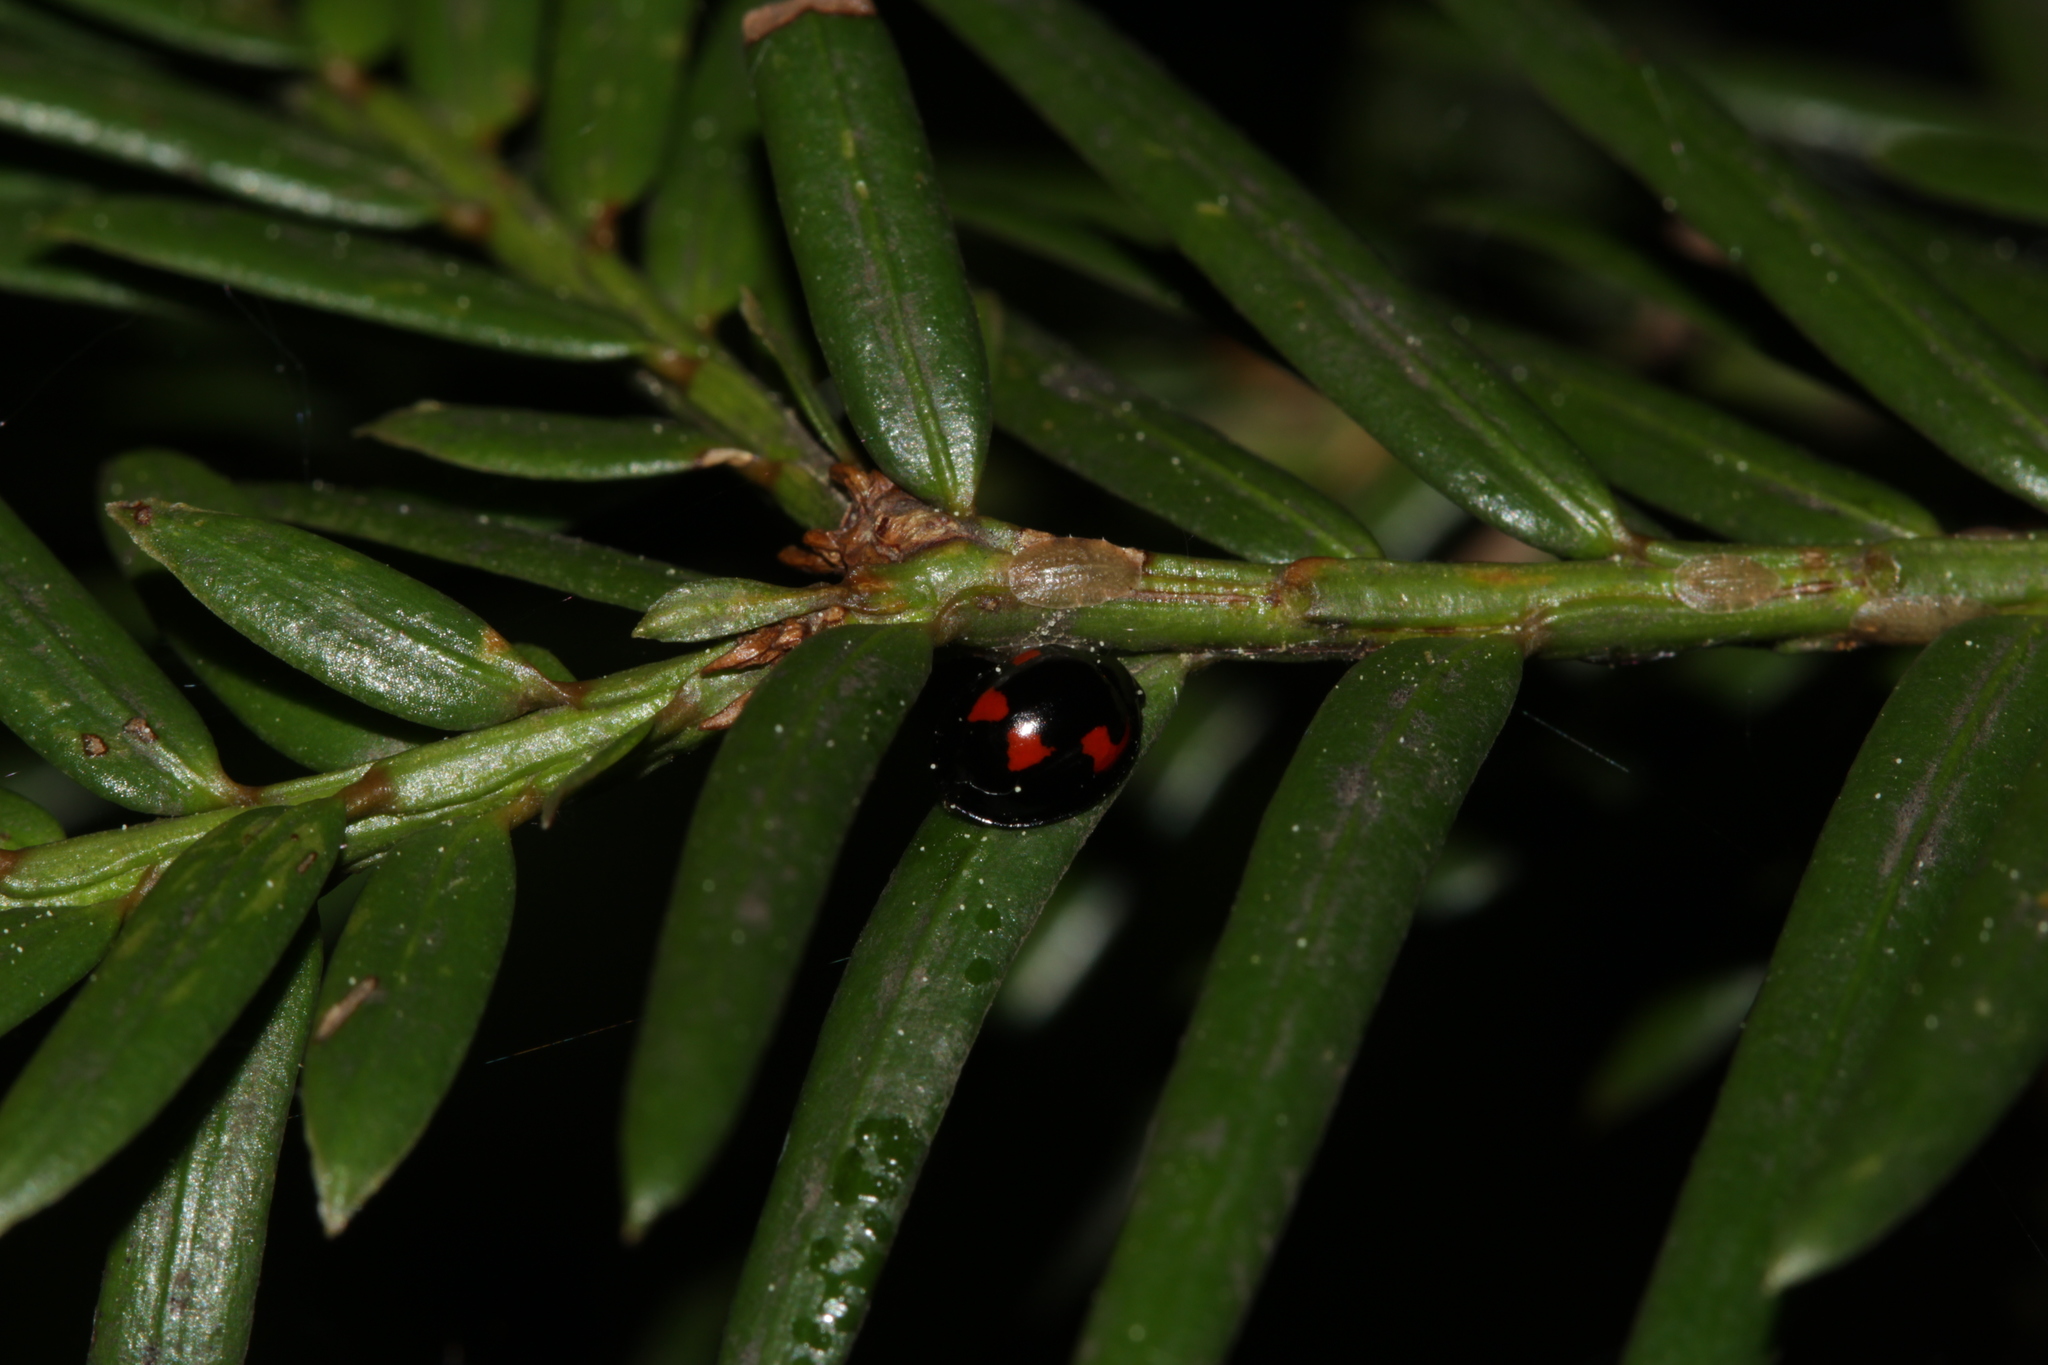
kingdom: Animalia
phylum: Arthropoda
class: Insecta
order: Coleoptera
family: Coccinellidae
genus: Brumus
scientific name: Brumus quadripustulatus
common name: Ladybird beetle
